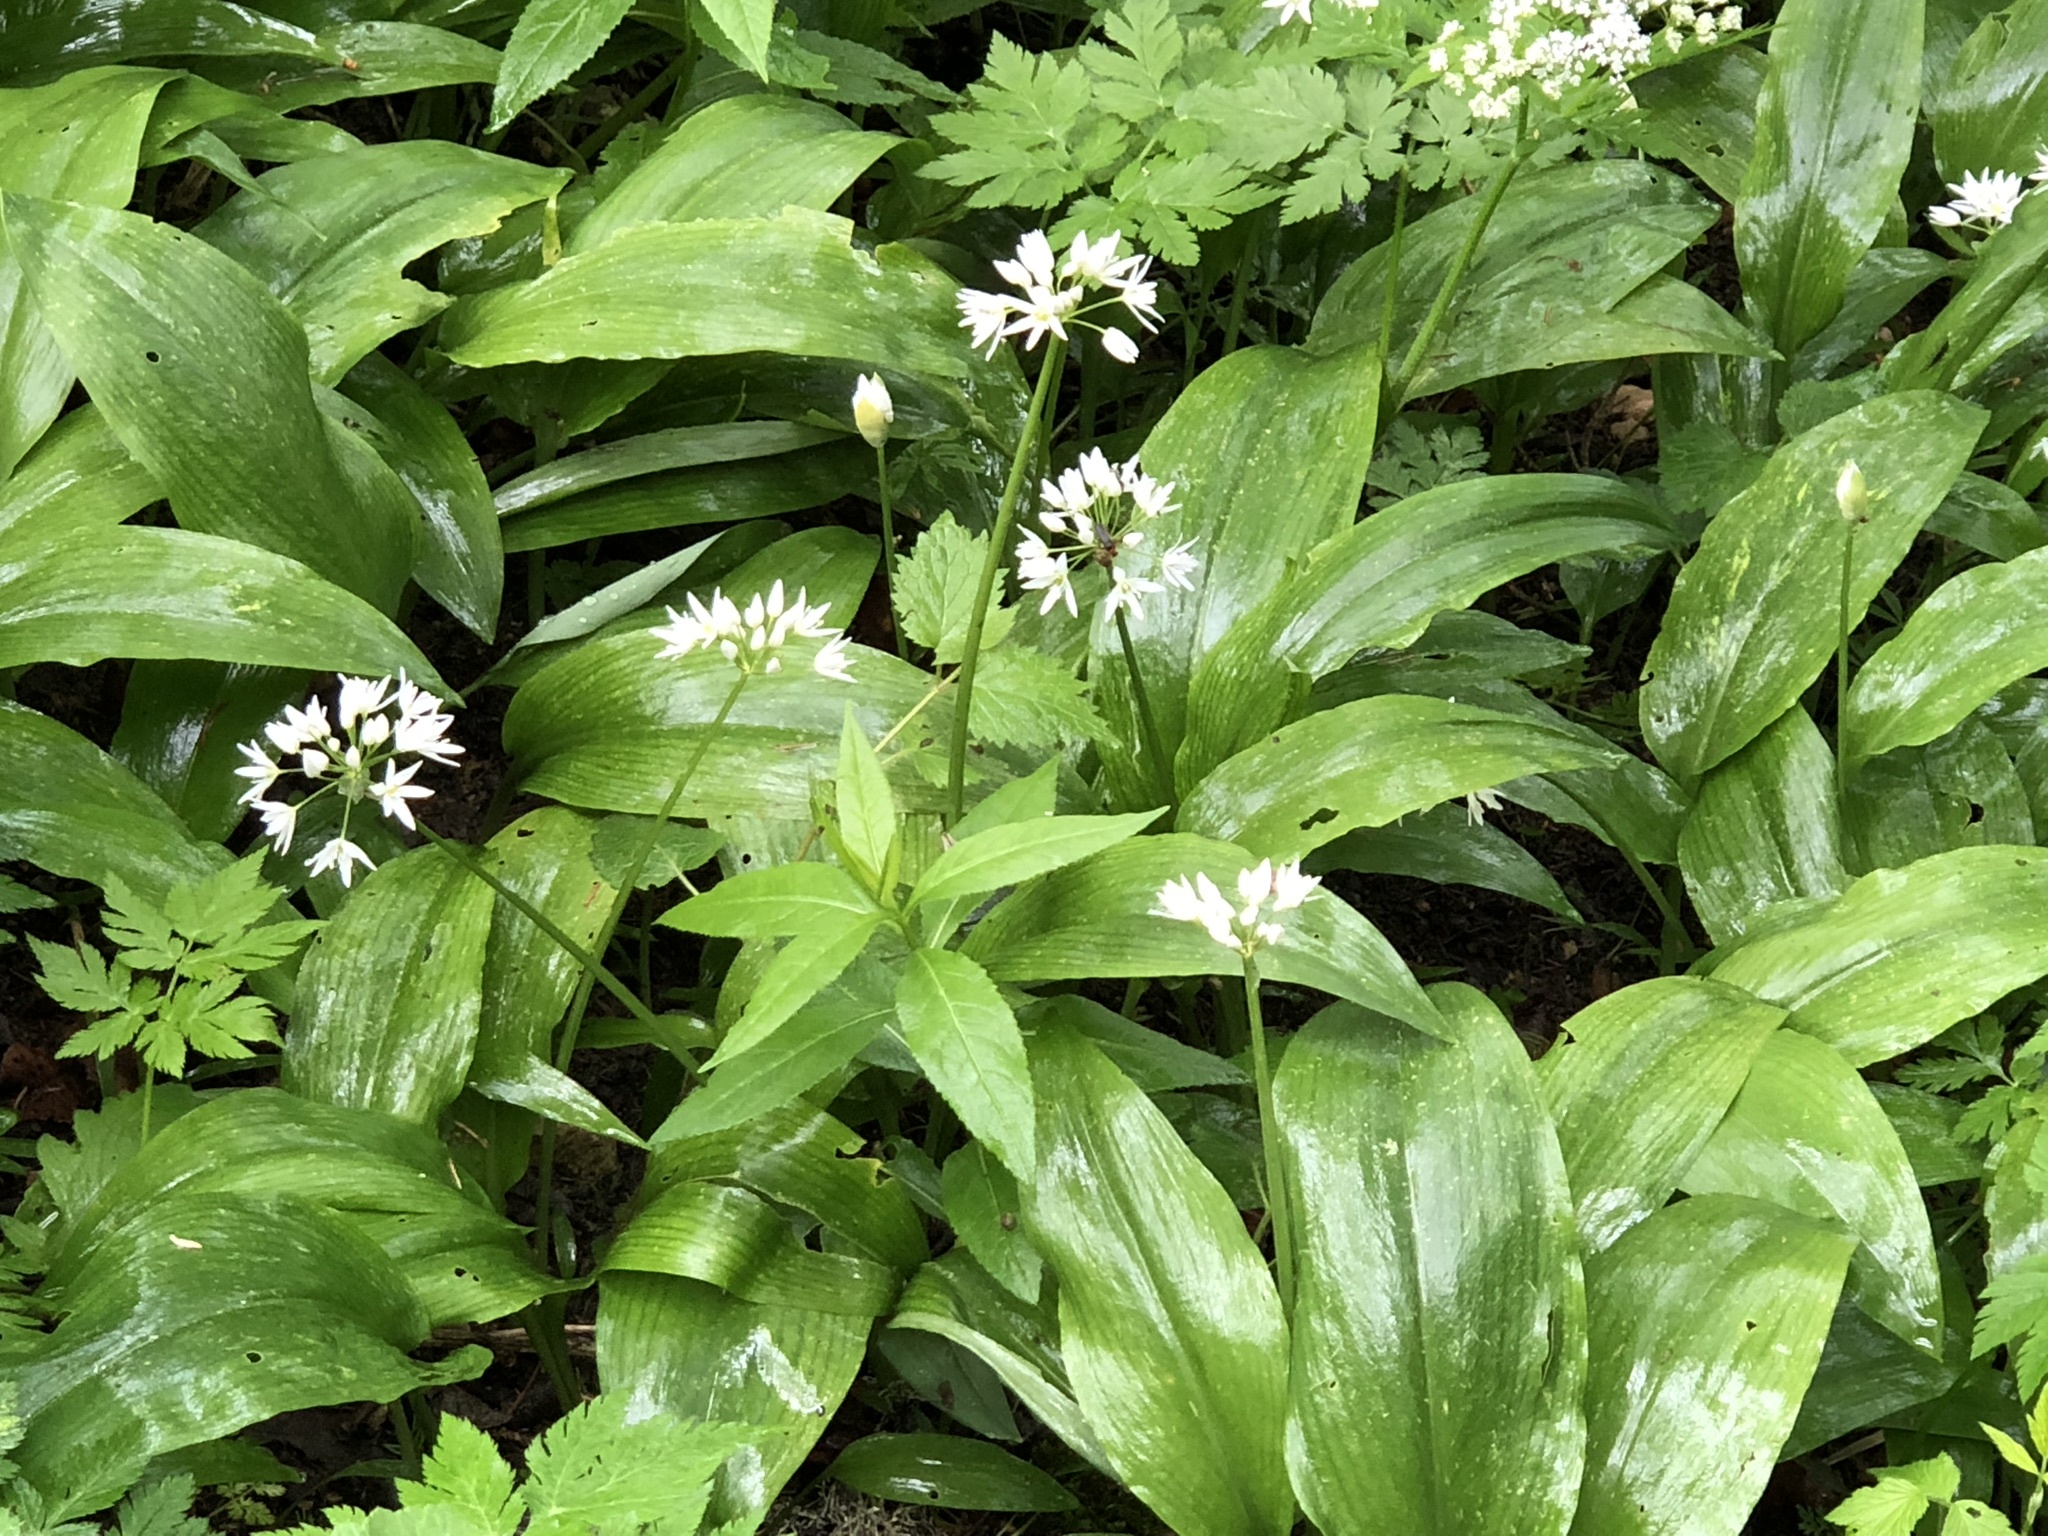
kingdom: Plantae
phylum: Tracheophyta
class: Liliopsida
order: Asparagales
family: Amaryllidaceae
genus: Allium
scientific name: Allium ursinum
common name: Ramsons
